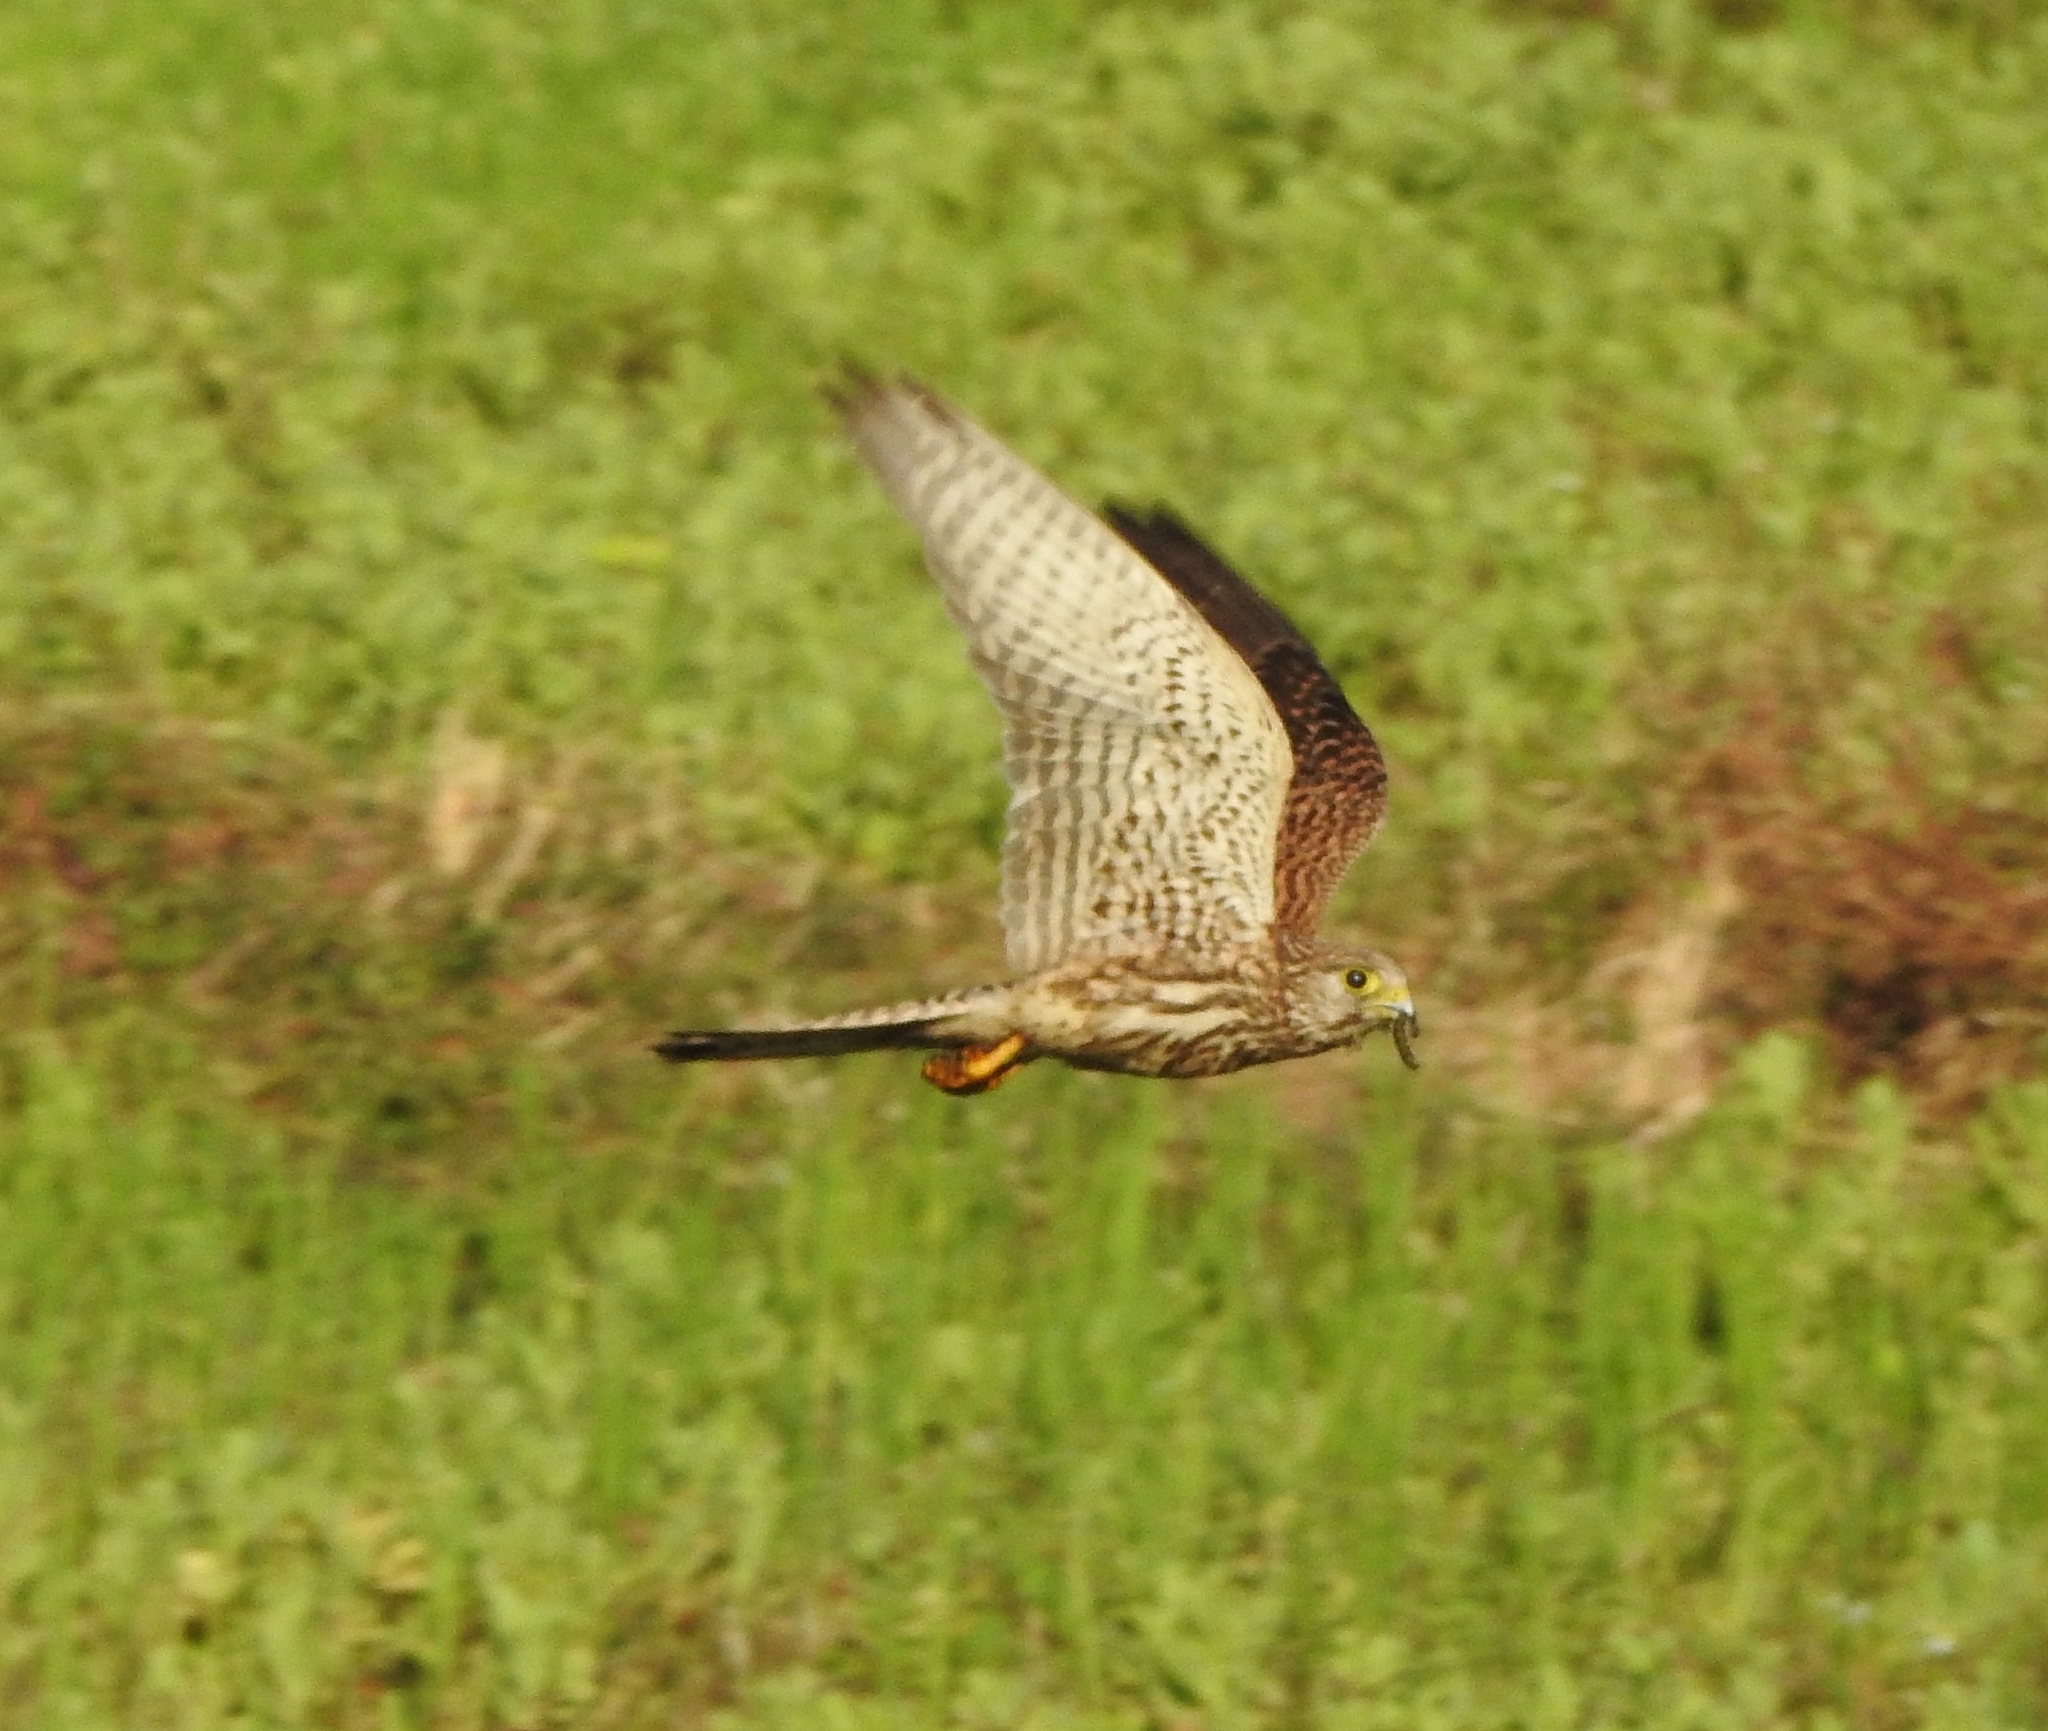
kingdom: Animalia
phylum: Chordata
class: Aves
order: Falconiformes
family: Falconidae
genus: Falco
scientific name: Falco tinnunculus
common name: Common kestrel
